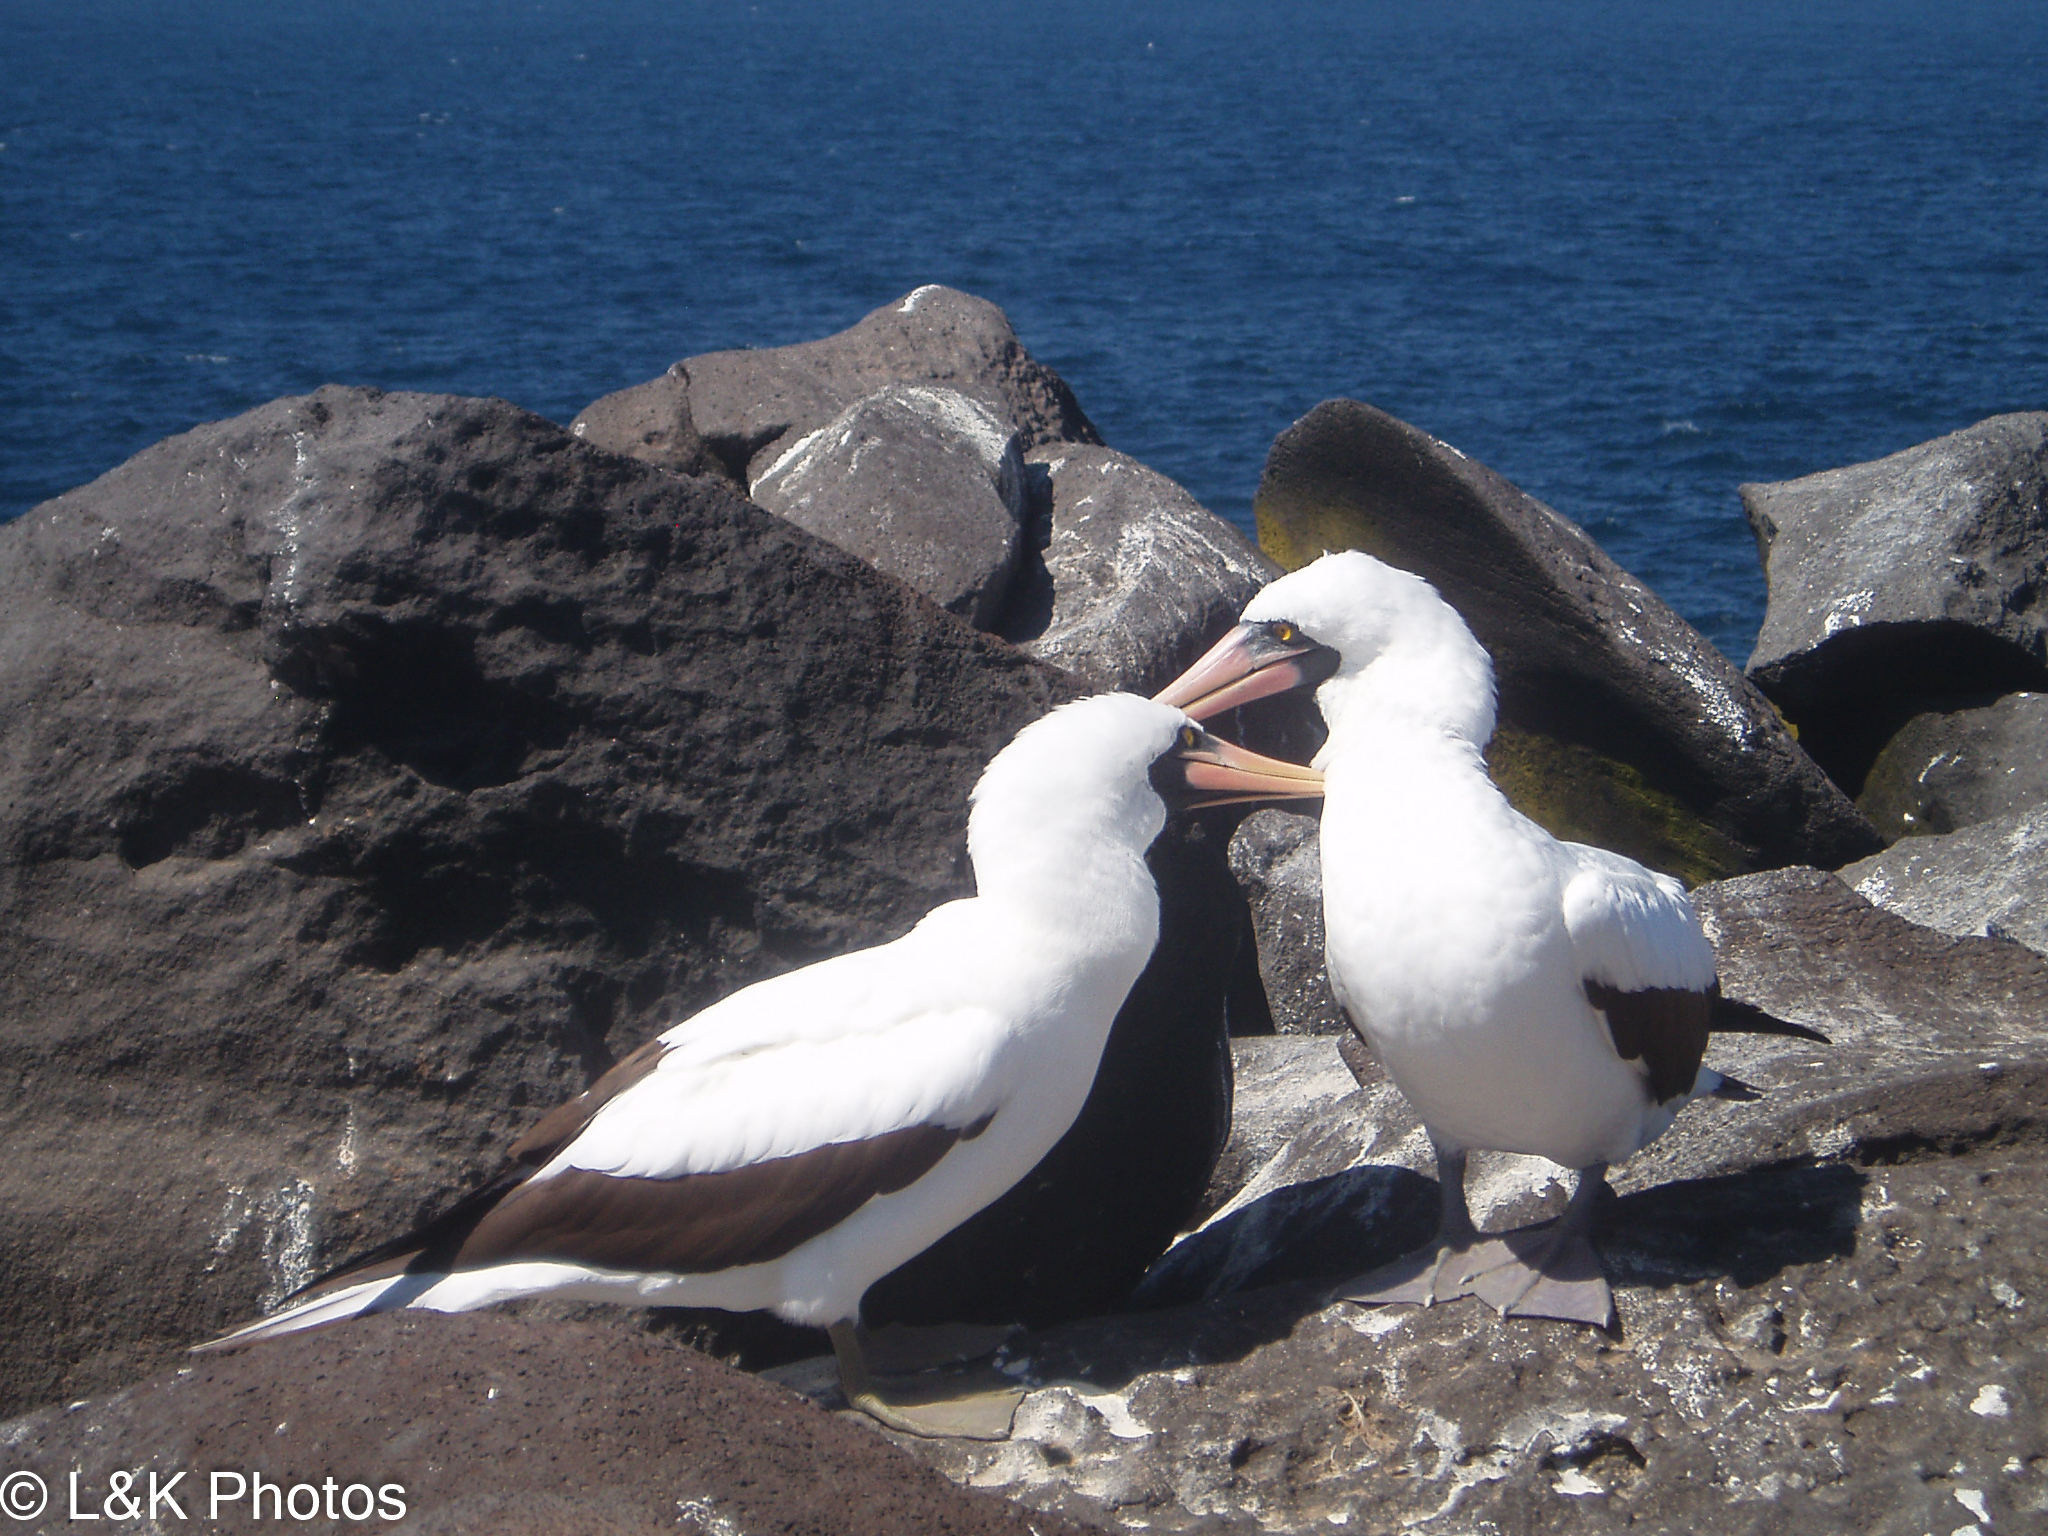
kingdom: Animalia
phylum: Chordata
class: Aves
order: Suliformes
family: Sulidae
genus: Sula
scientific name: Sula granti
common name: Nazca booby
